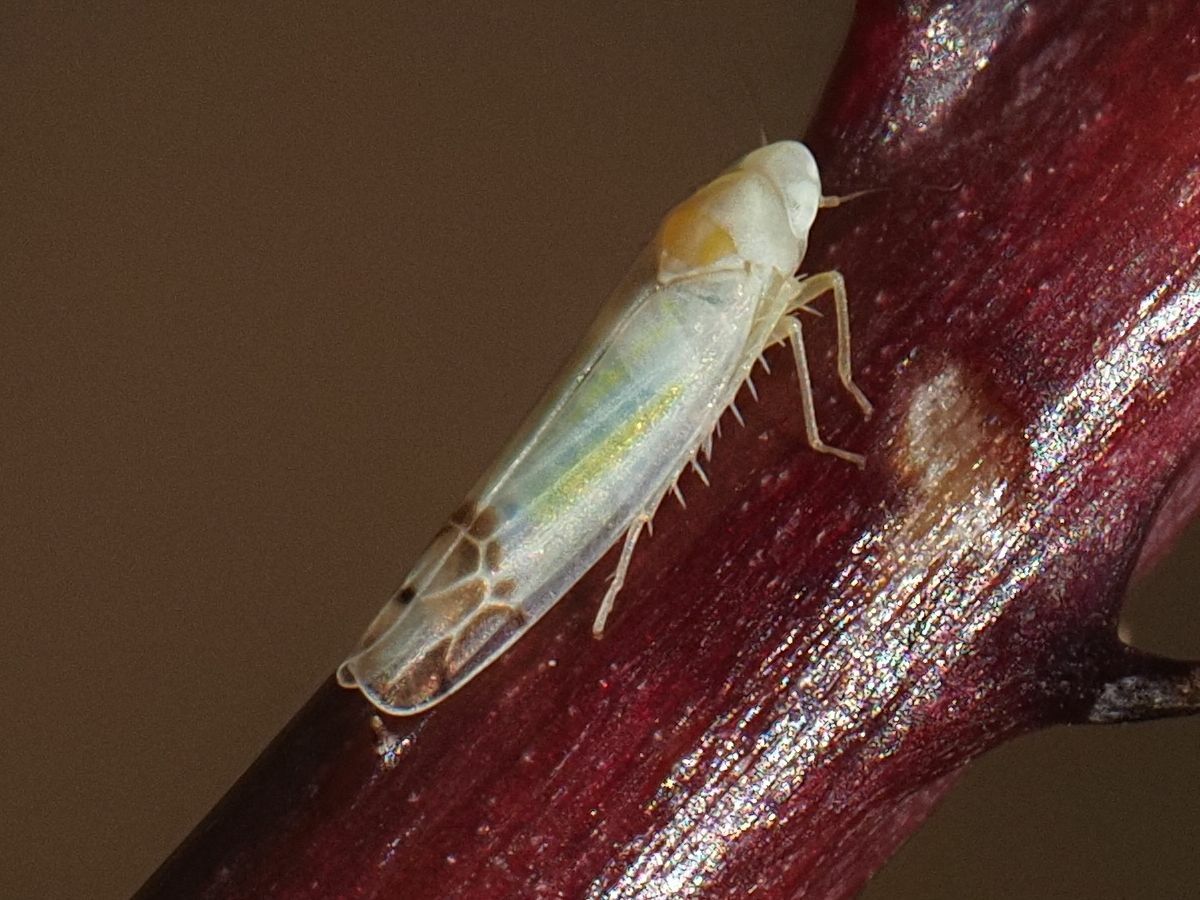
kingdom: Animalia
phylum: Arthropoda
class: Insecta
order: Hemiptera
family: Cicadellidae
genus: Ribautiana
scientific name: Ribautiana tenerrima
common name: Bramble leafhopper
